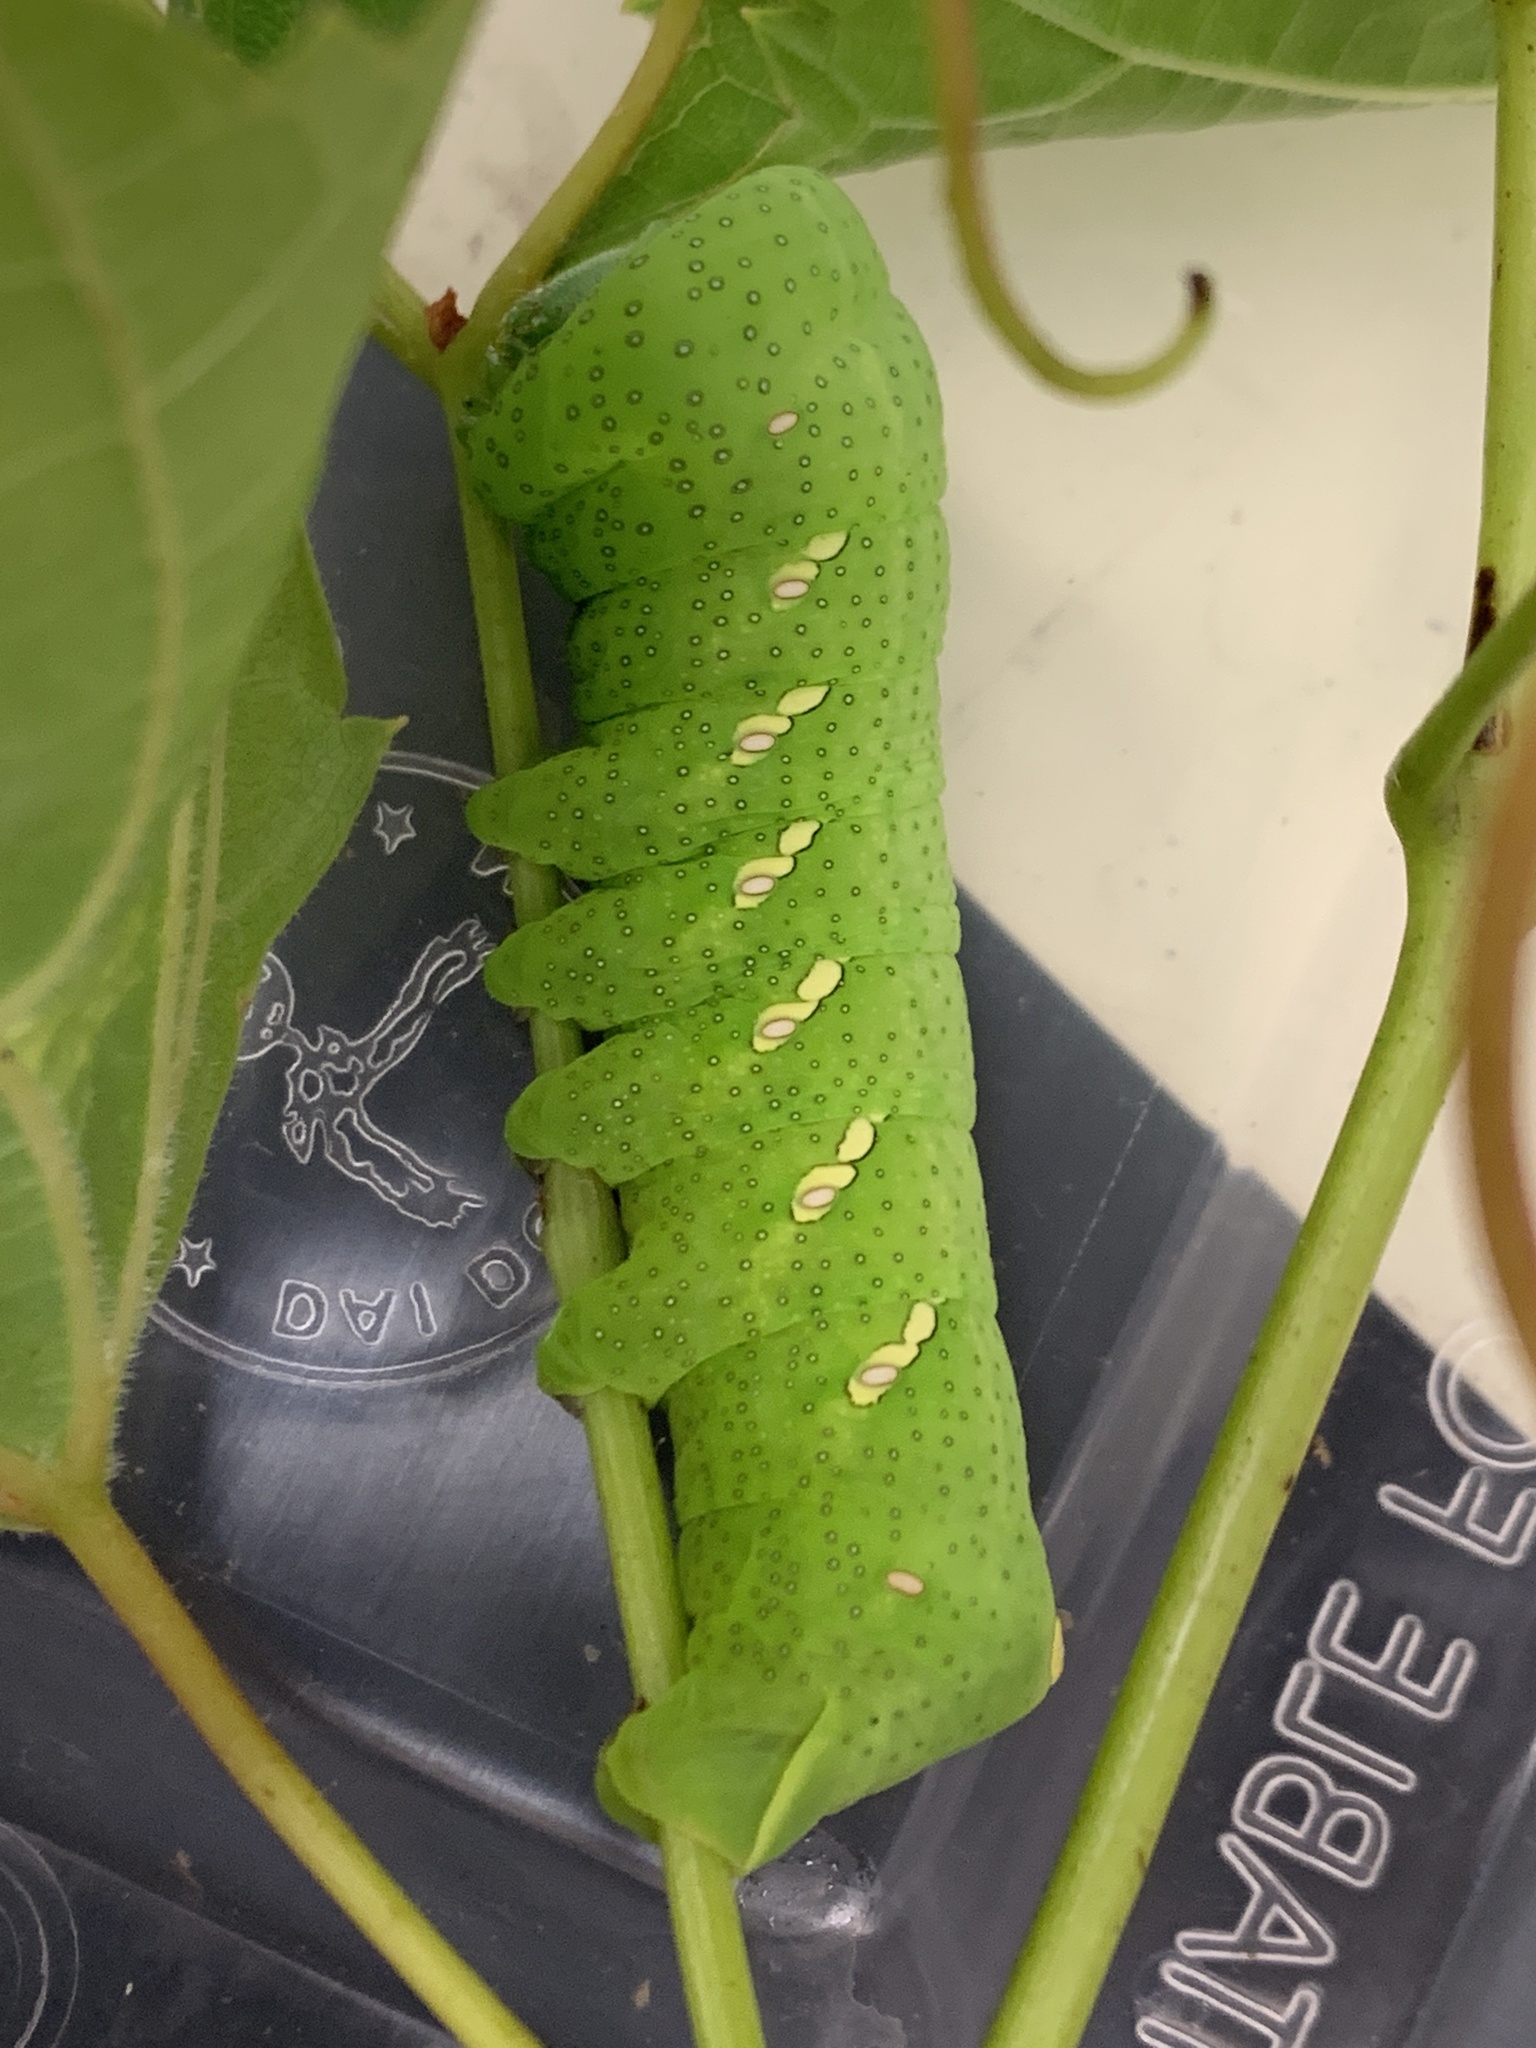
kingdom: Animalia
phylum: Arthropoda
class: Insecta
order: Lepidoptera
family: Sphingidae
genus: Eumorpha
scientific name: Eumorpha achemon
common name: Achemon sphinx
